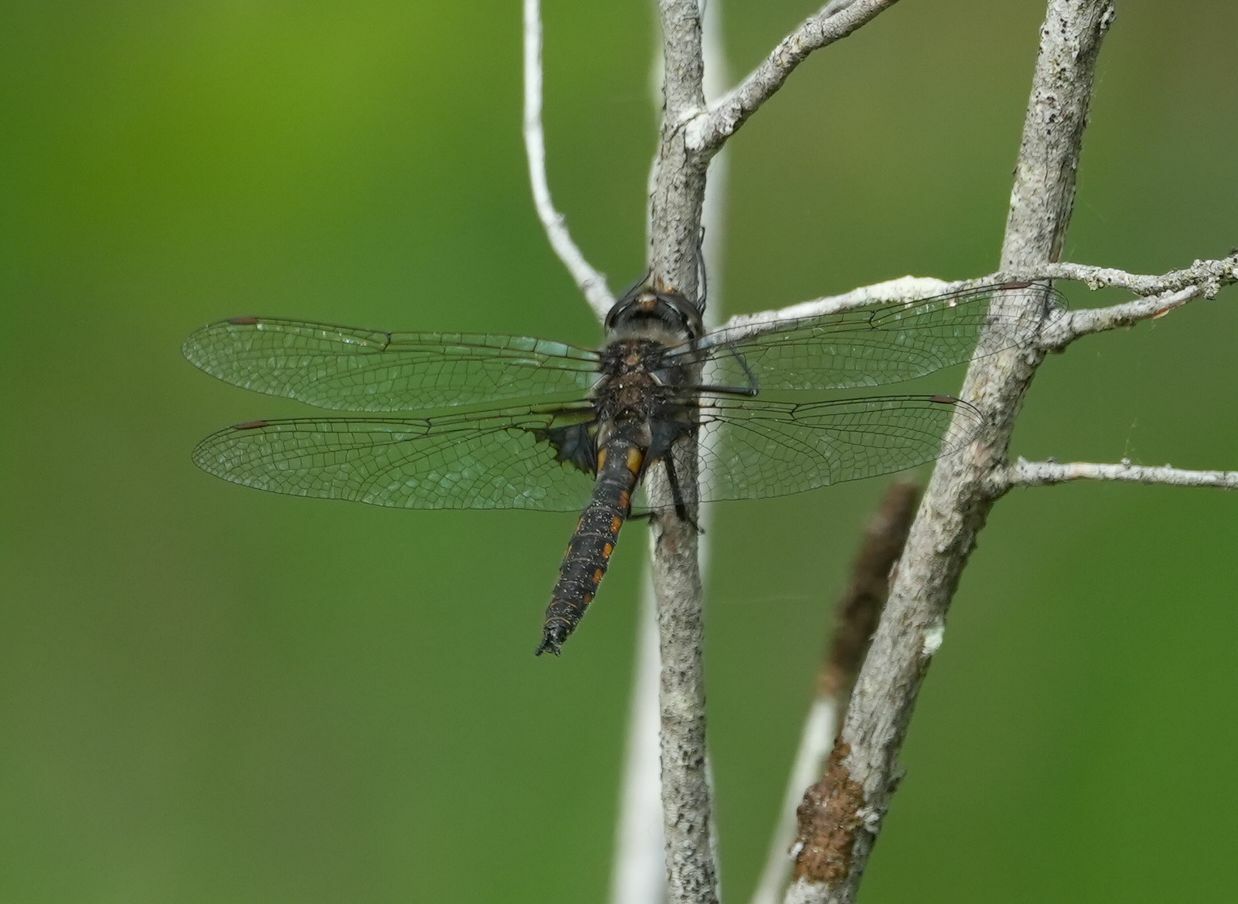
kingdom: Animalia
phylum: Arthropoda
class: Insecta
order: Odonata
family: Corduliidae
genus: Epitheca
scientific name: Epitheca cynosura
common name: Common baskettail
